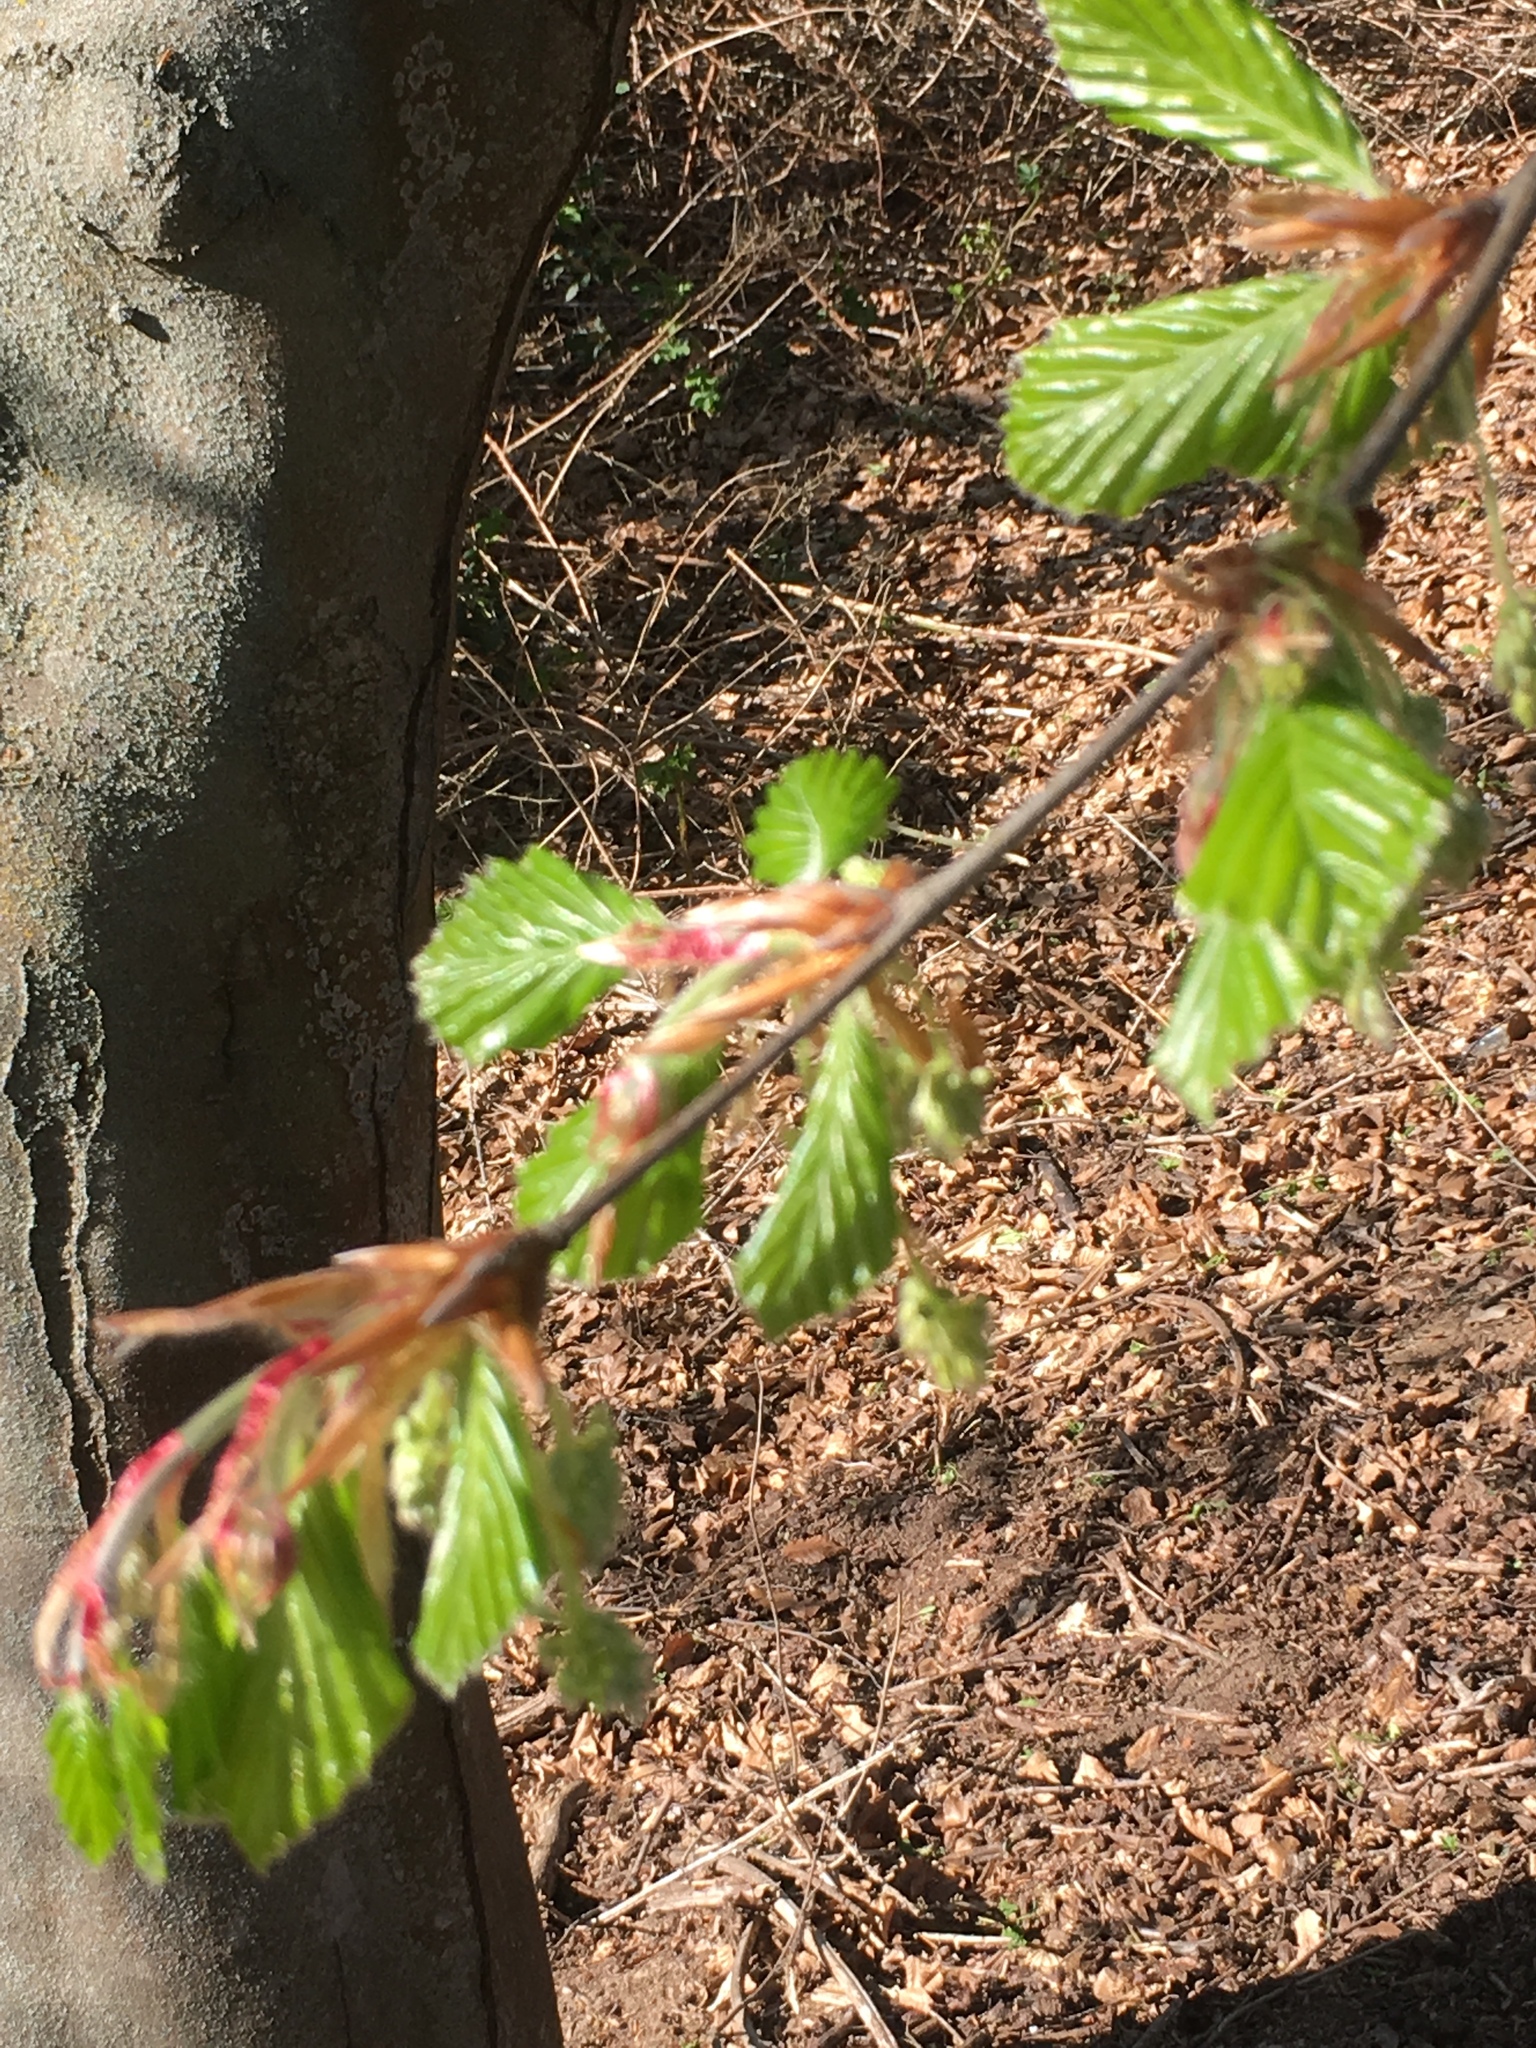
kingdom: Plantae
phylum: Tracheophyta
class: Magnoliopsida
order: Fagales
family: Fagaceae
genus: Fagus
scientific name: Fagus sylvatica
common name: Beech
